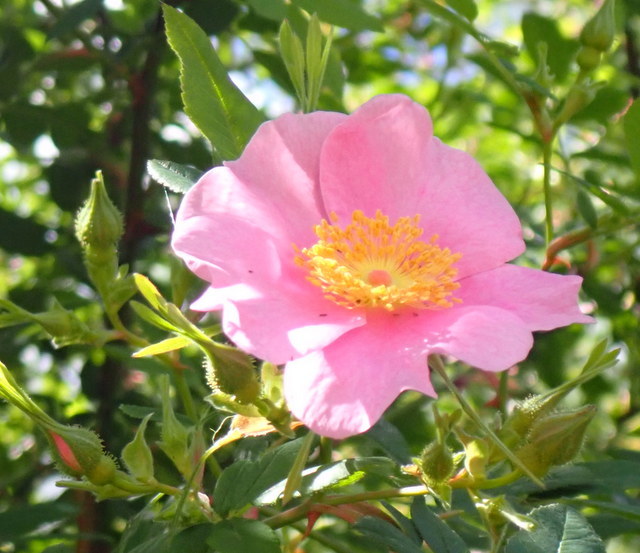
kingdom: Plantae
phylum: Tracheophyta
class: Magnoliopsida
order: Rosales
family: Rosaceae
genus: Rosa
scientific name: Rosa palustris
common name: Swamp rose
